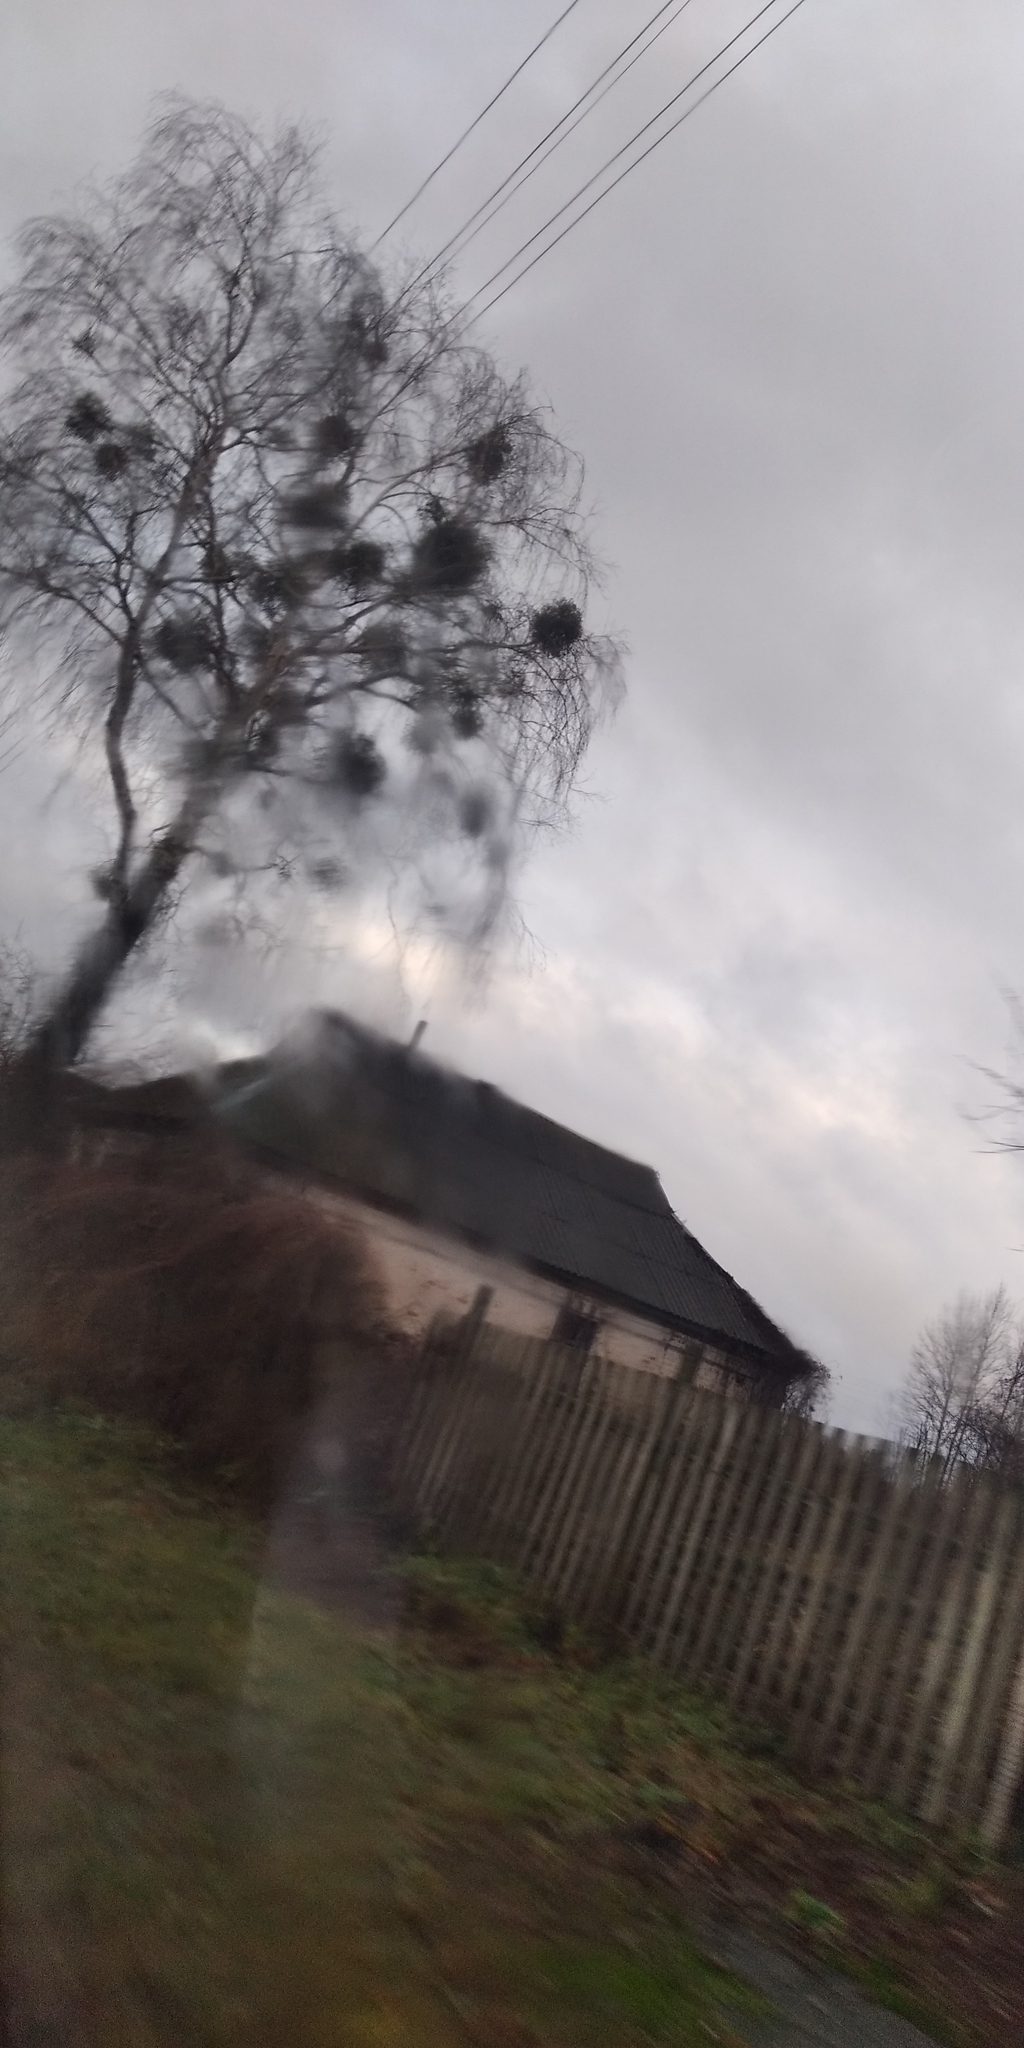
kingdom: Plantae
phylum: Tracheophyta
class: Magnoliopsida
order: Santalales
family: Viscaceae
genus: Viscum
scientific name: Viscum album
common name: Mistletoe
